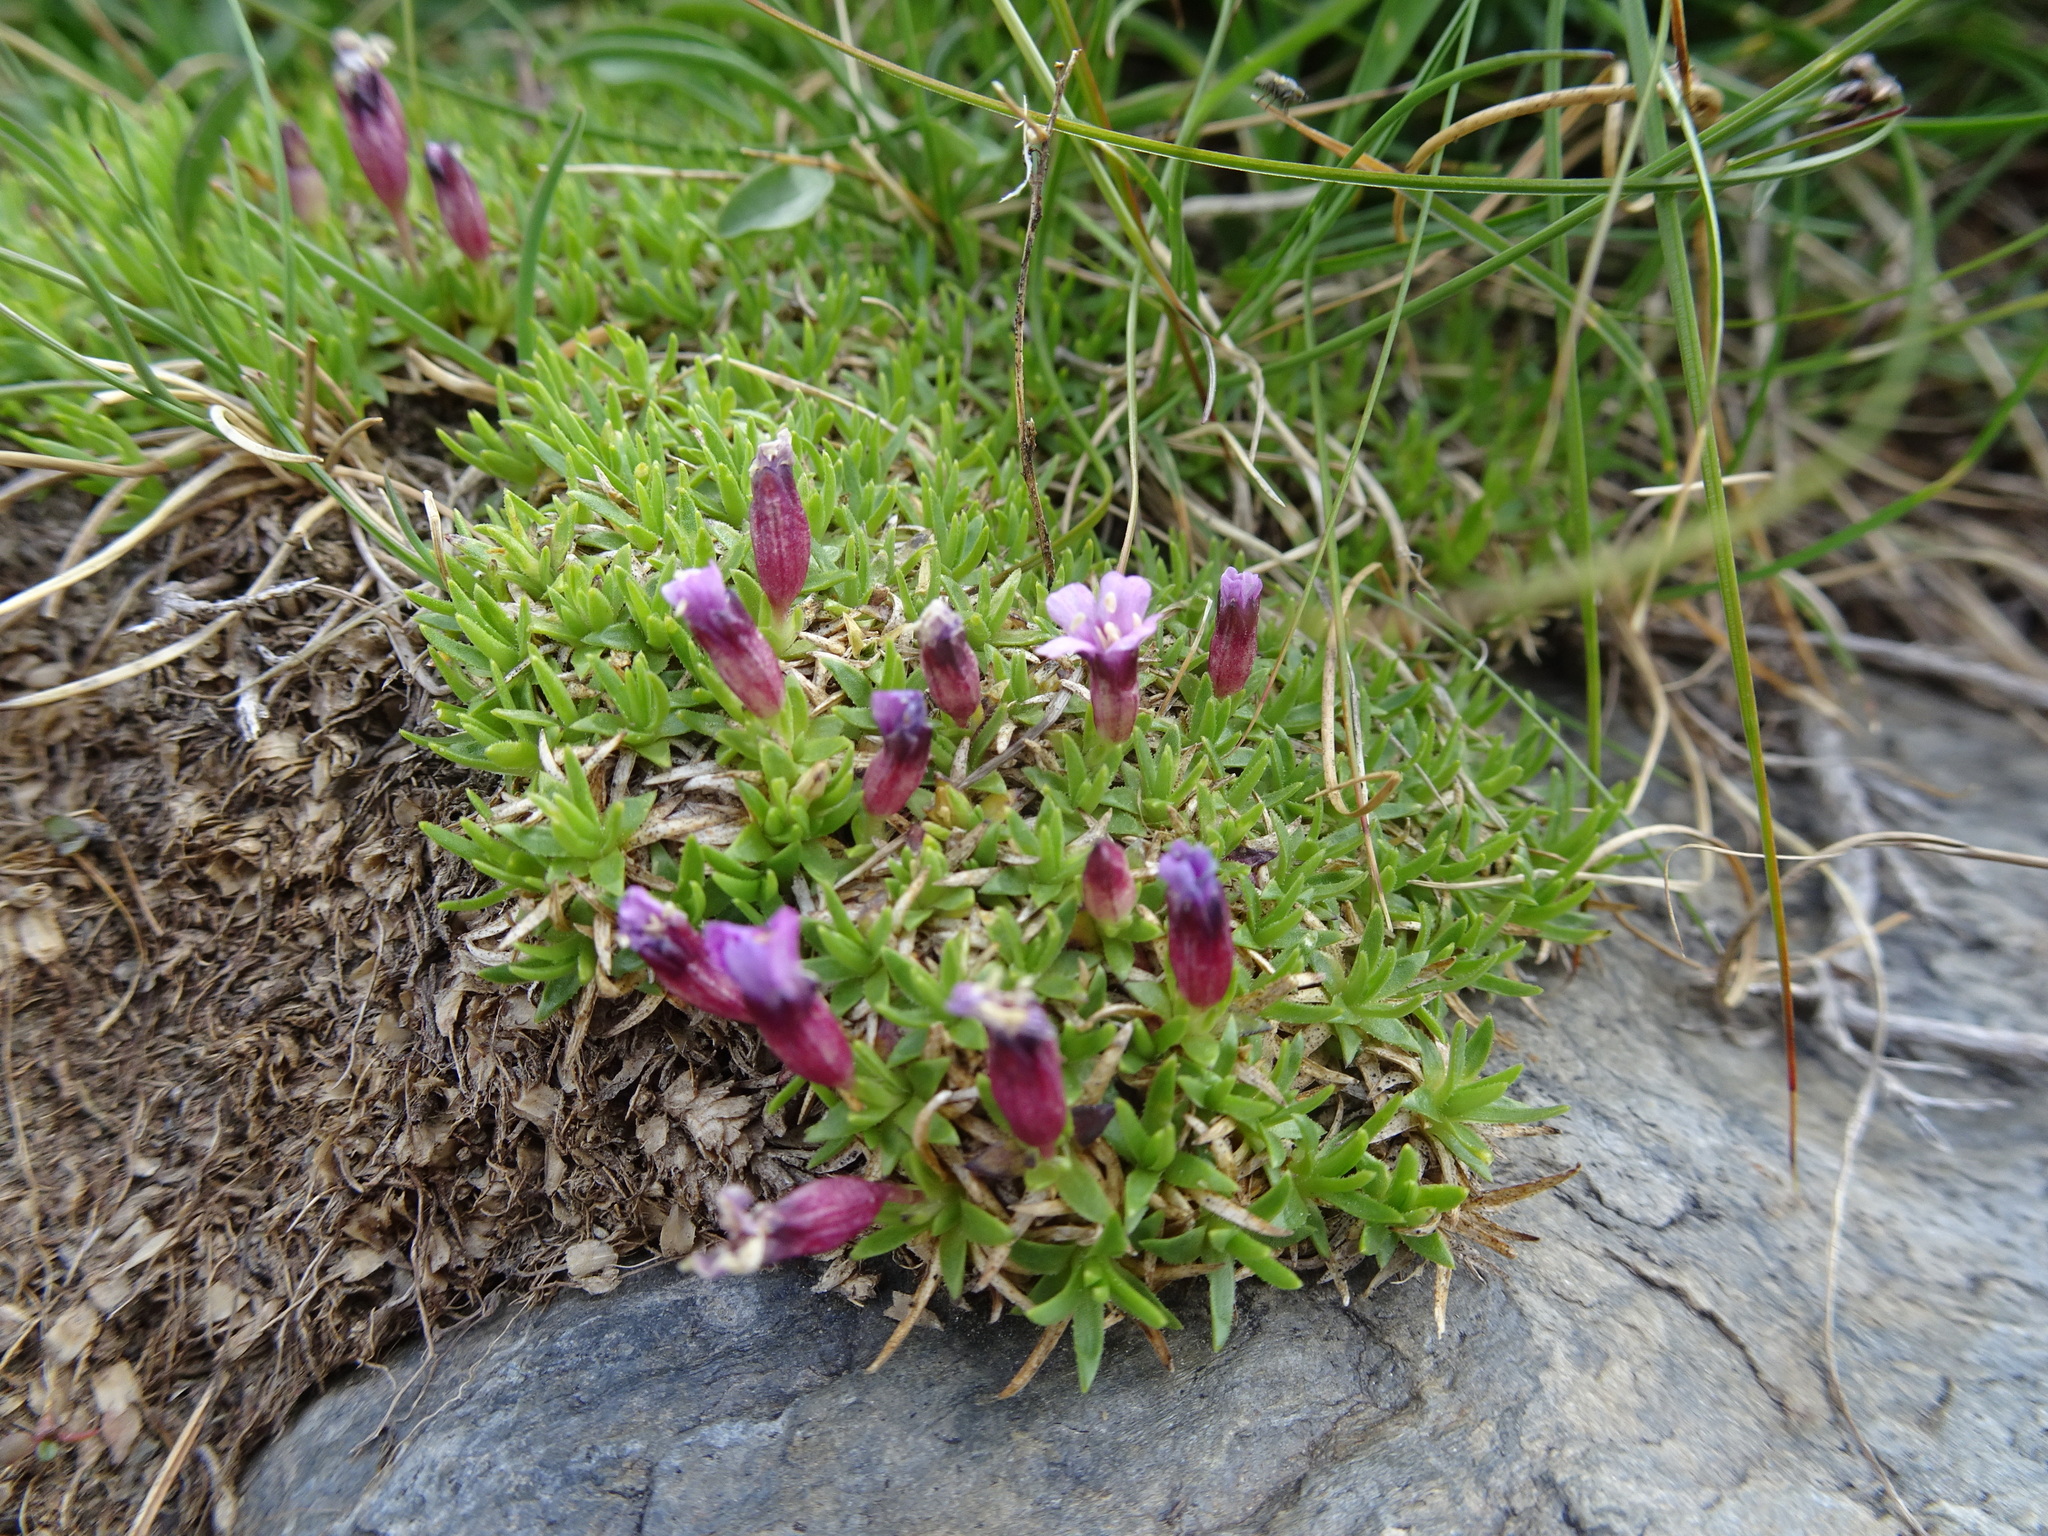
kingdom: Plantae
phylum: Tracheophyta
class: Magnoliopsida
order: Caryophyllales
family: Caryophyllaceae
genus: Silene
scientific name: Silene acaulis
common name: Moss campion
